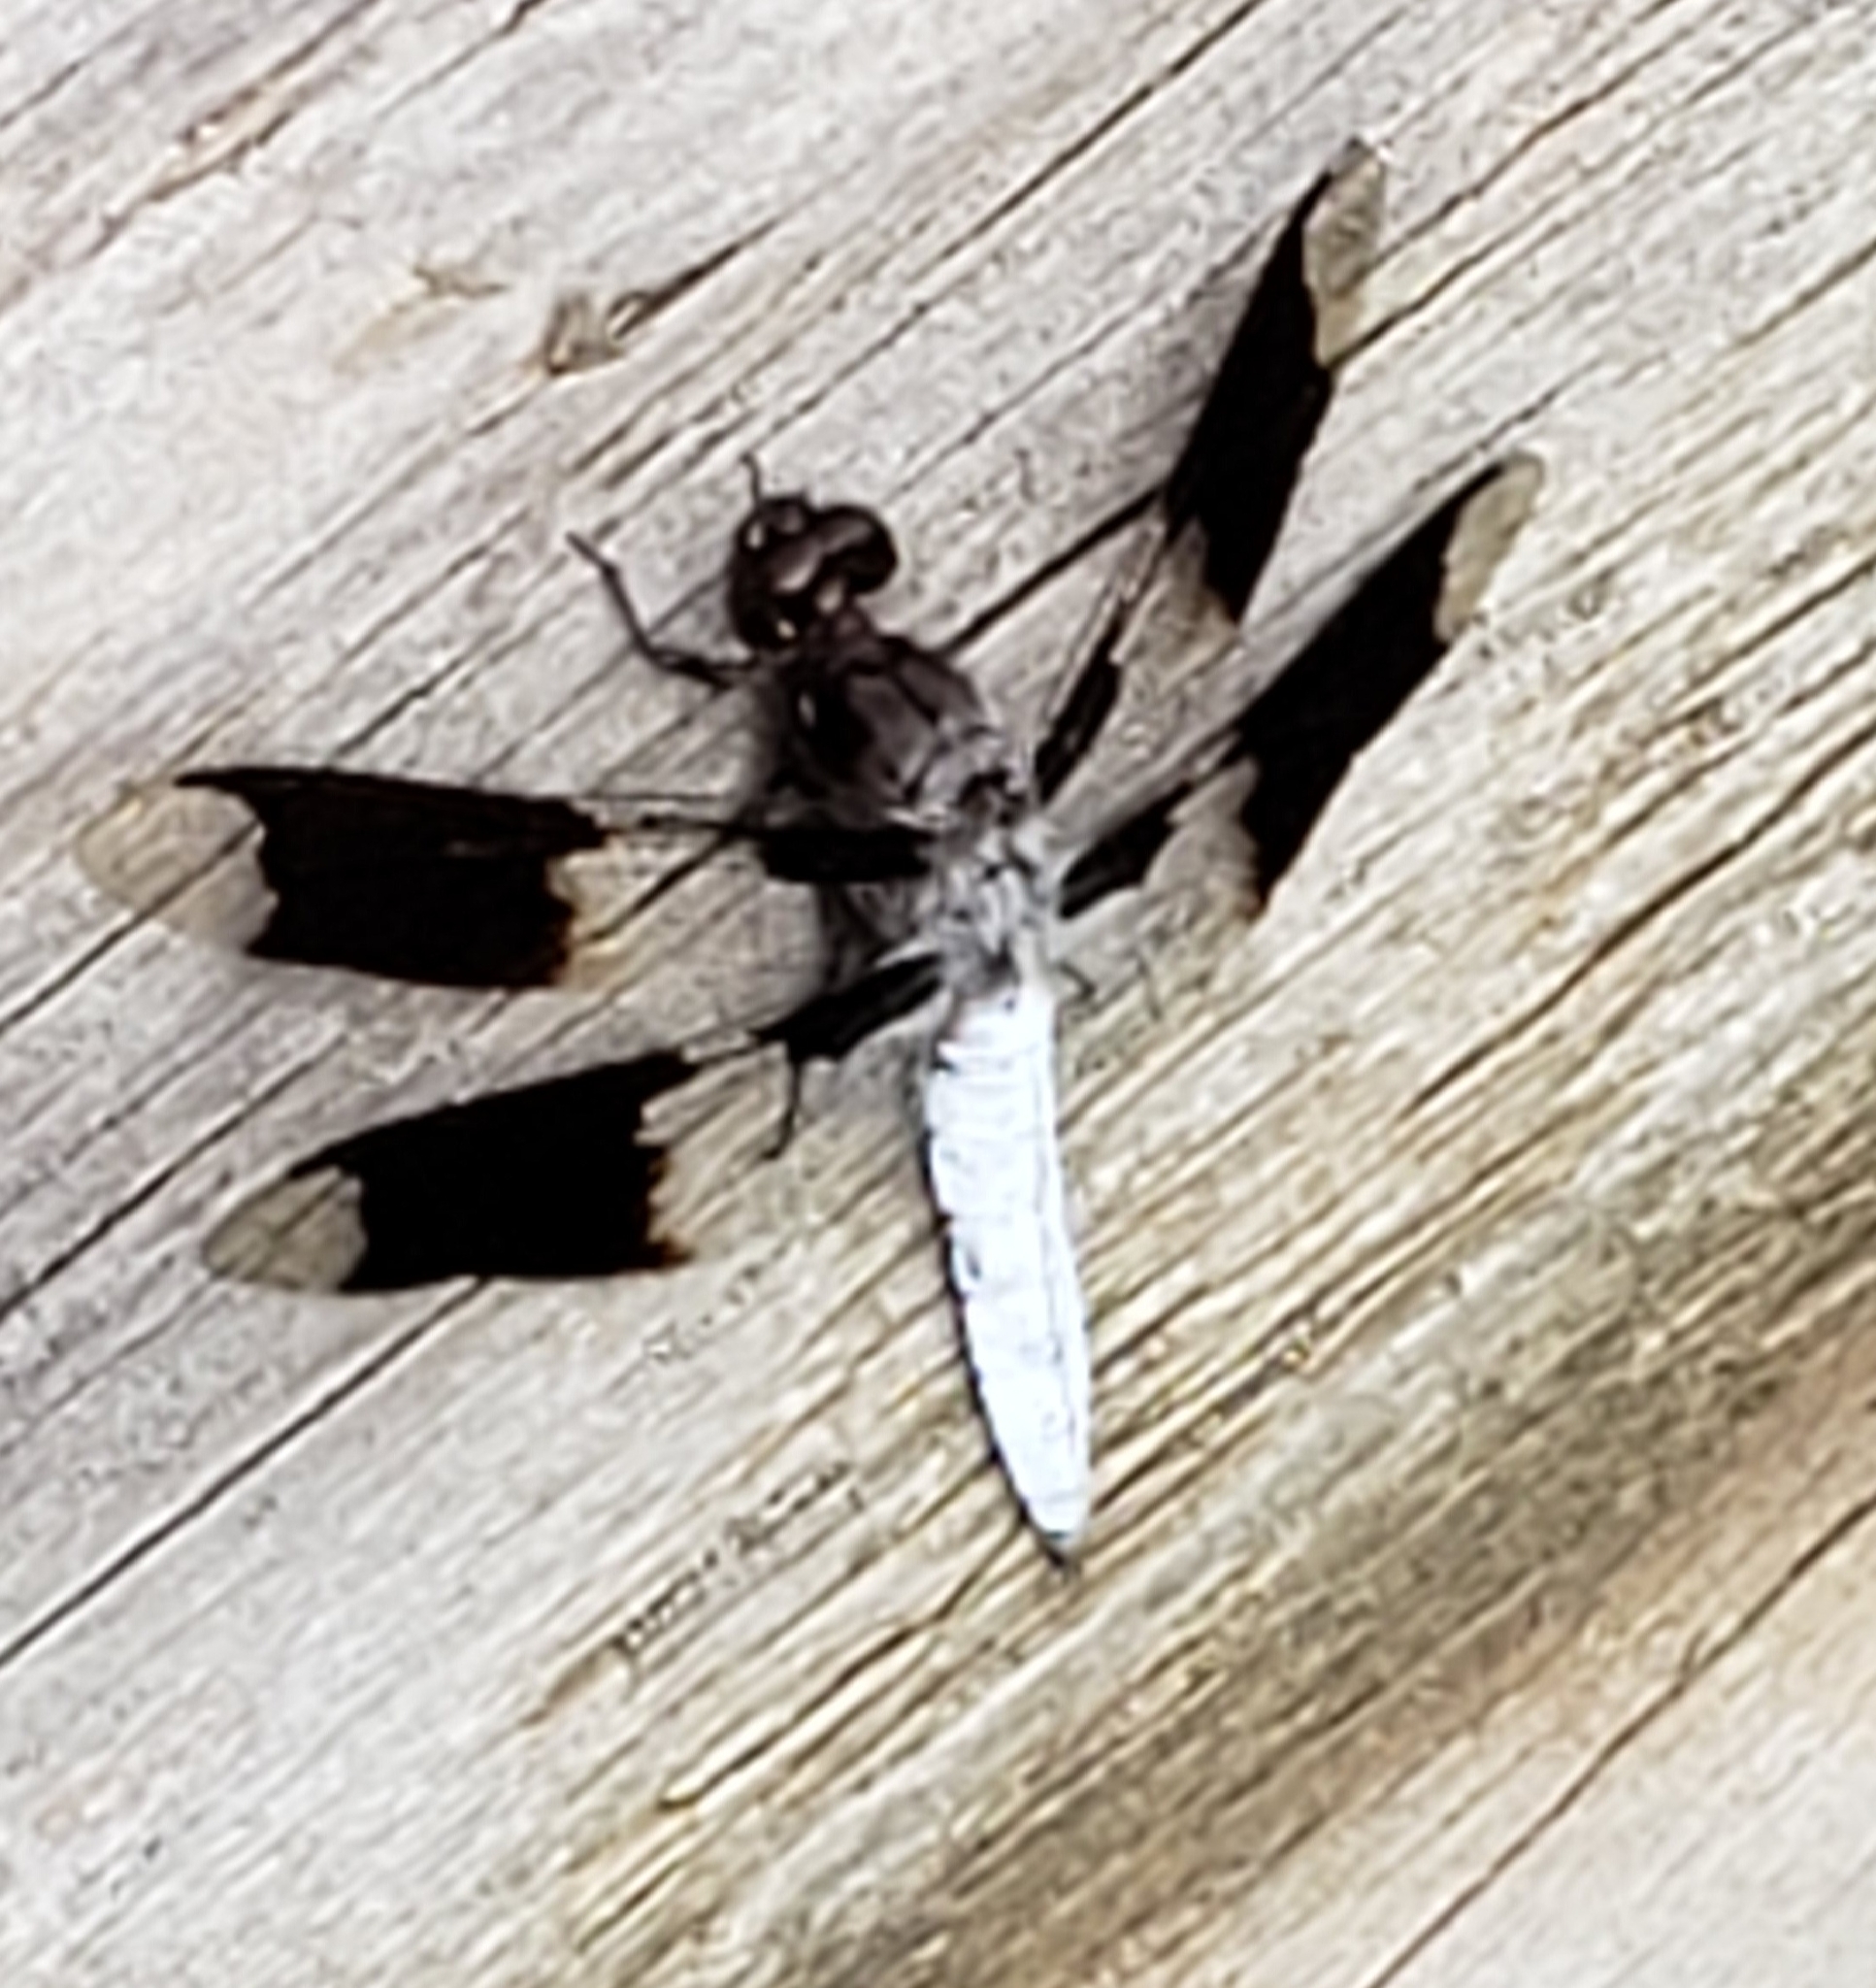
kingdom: Animalia
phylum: Arthropoda
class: Insecta
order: Odonata
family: Libellulidae
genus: Plathemis
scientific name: Plathemis lydia
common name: Common whitetail
